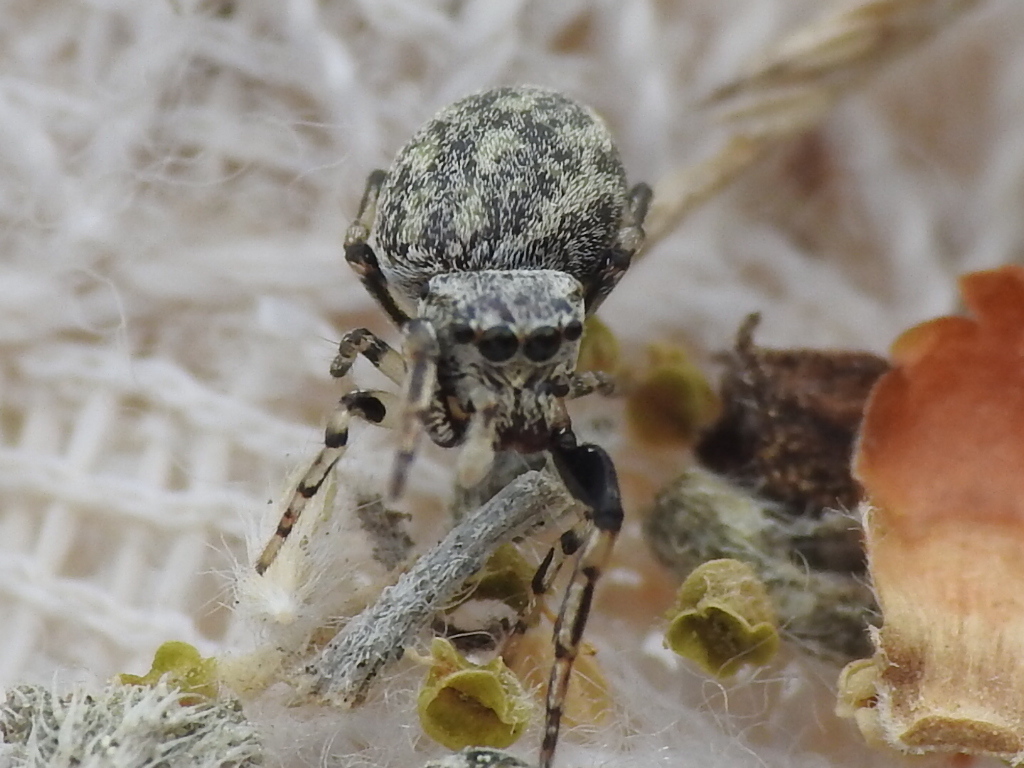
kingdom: Animalia
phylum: Arthropoda
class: Arachnida
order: Araneae
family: Salticidae
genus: Zygoballus
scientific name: Zygoballus rufipes
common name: Jumping spiders
